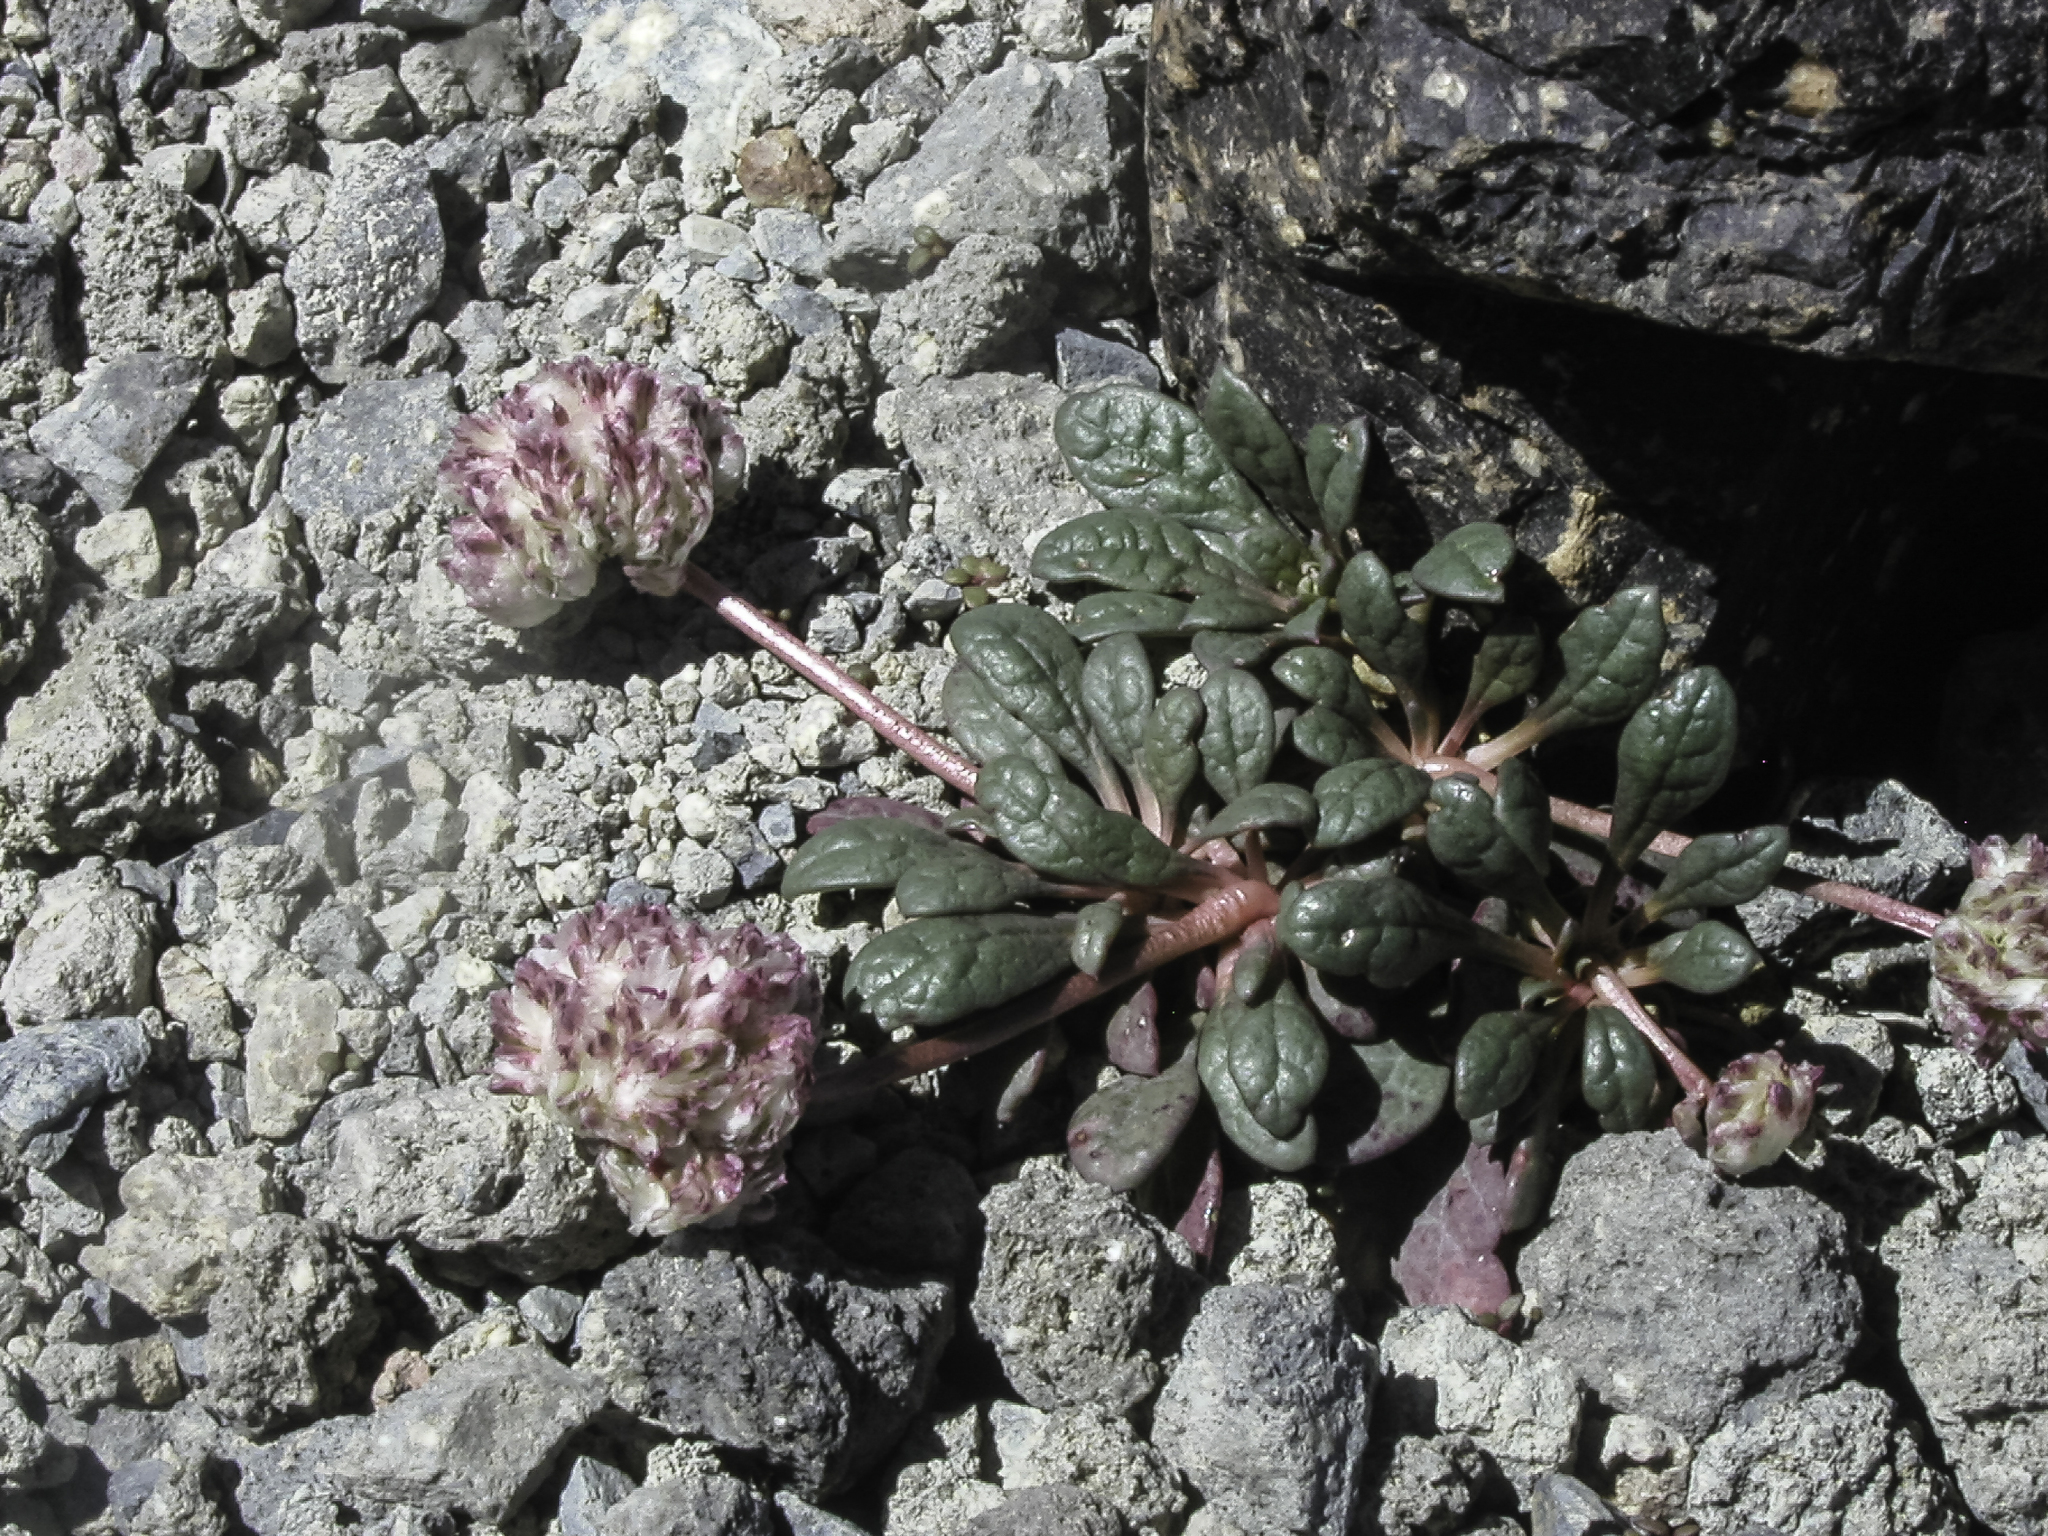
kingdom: Plantae
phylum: Tracheophyta
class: Magnoliopsida
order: Caryophyllales
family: Montiaceae
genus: Calyptridium
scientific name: Calyptridium umbellatum
